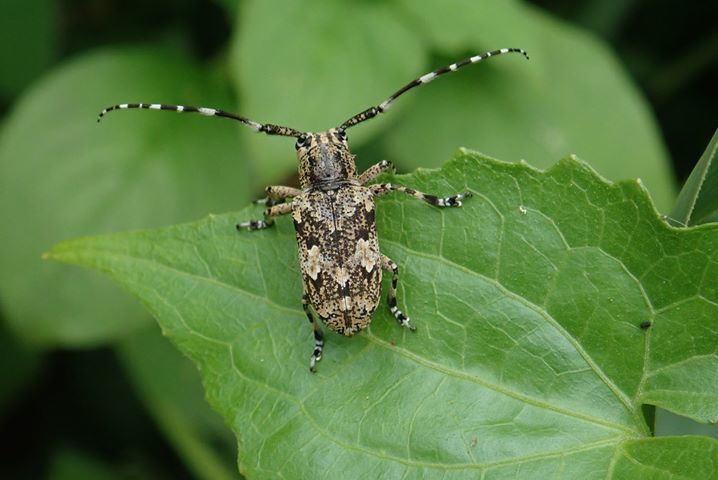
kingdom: Animalia
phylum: Arthropoda
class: Insecta
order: Coleoptera
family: Cerambycidae
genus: Agelasta
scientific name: Agelasta perplexa
